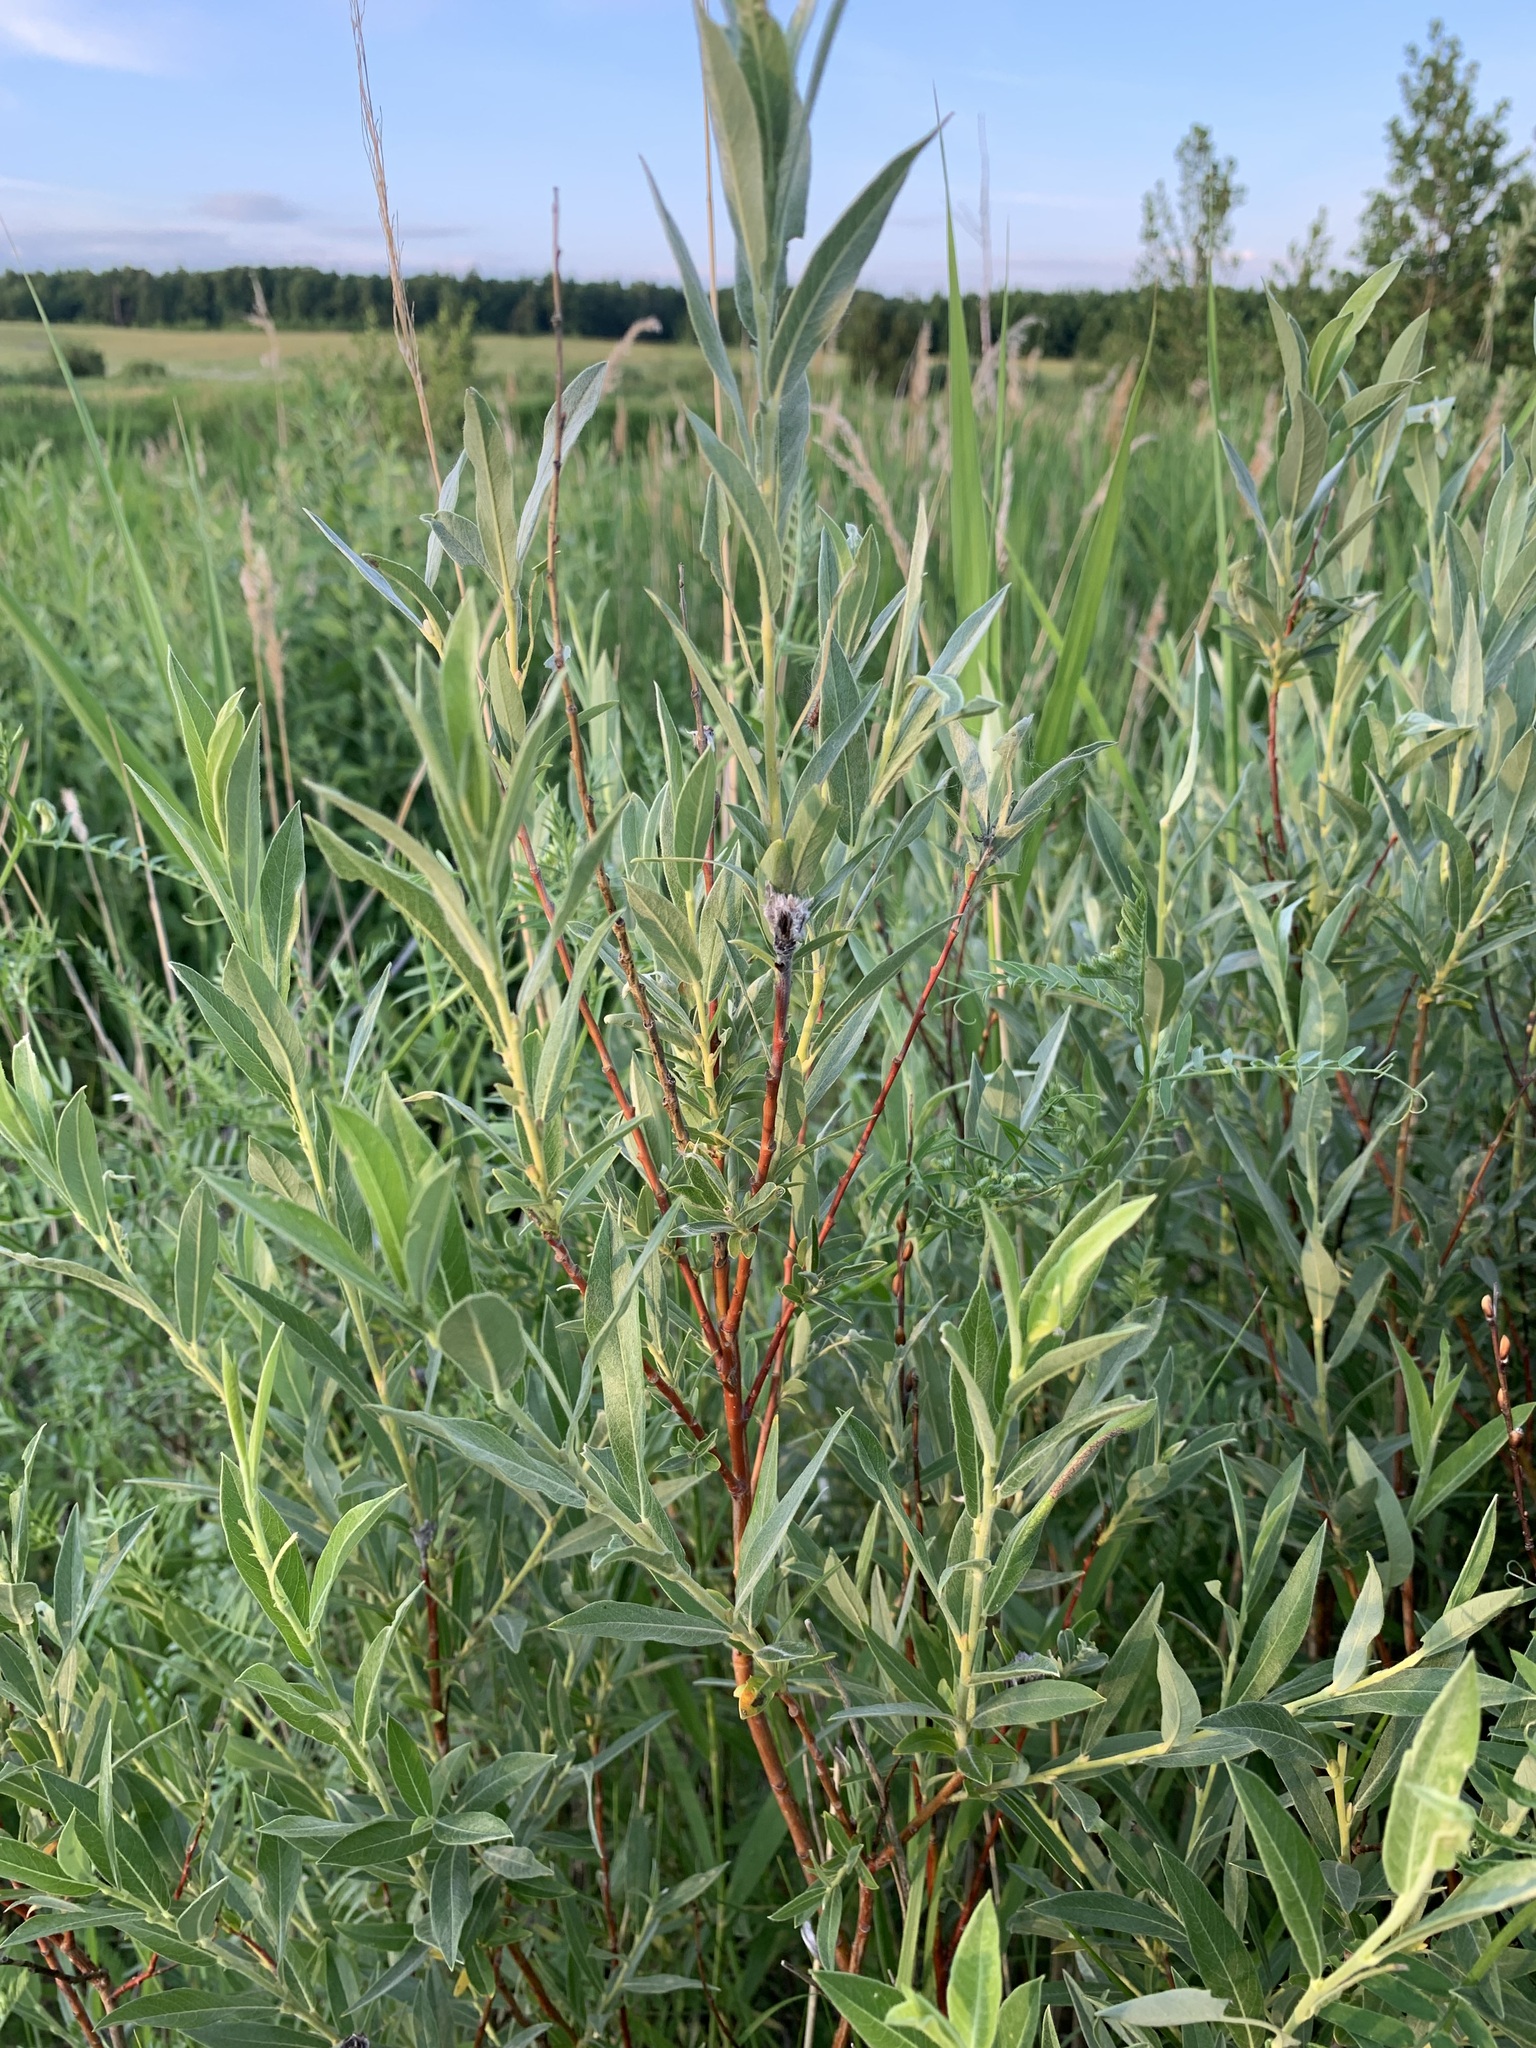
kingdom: Plantae
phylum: Tracheophyta
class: Magnoliopsida
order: Malpighiales
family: Salicaceae
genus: Salix
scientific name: Salix rosmarinifolia
